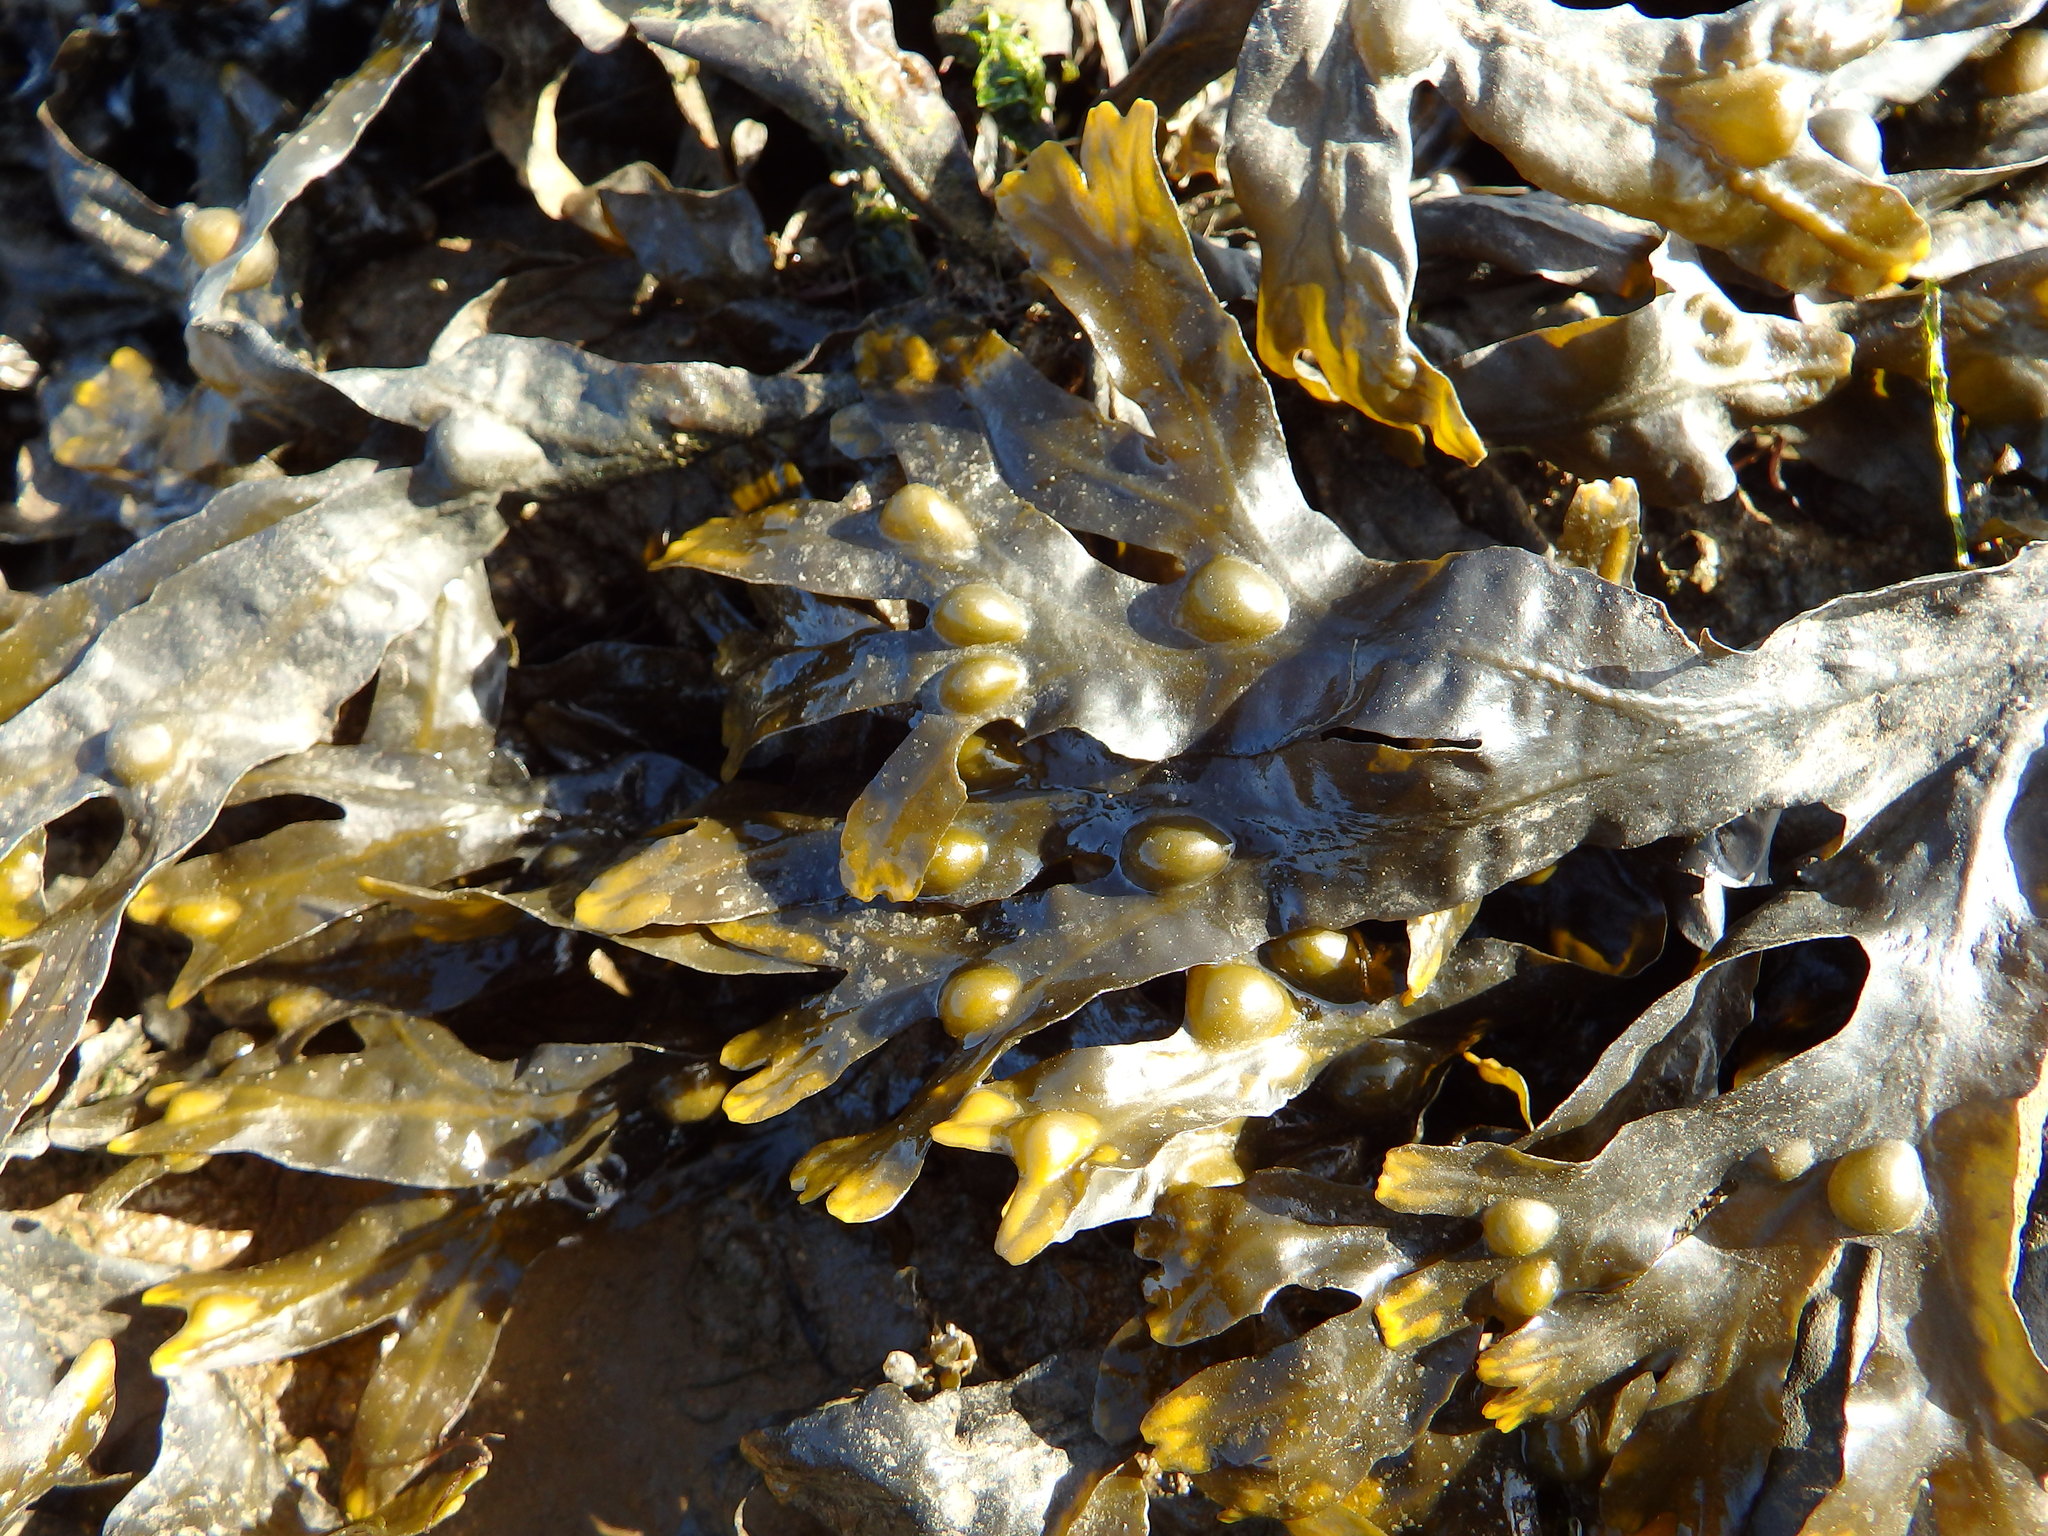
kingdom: Chromista
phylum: Ochrophyta
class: Phaeophyceae
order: Fucales
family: Fucaceae
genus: Fucus
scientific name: Fucus vesiculosus
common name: Bladder wrack
